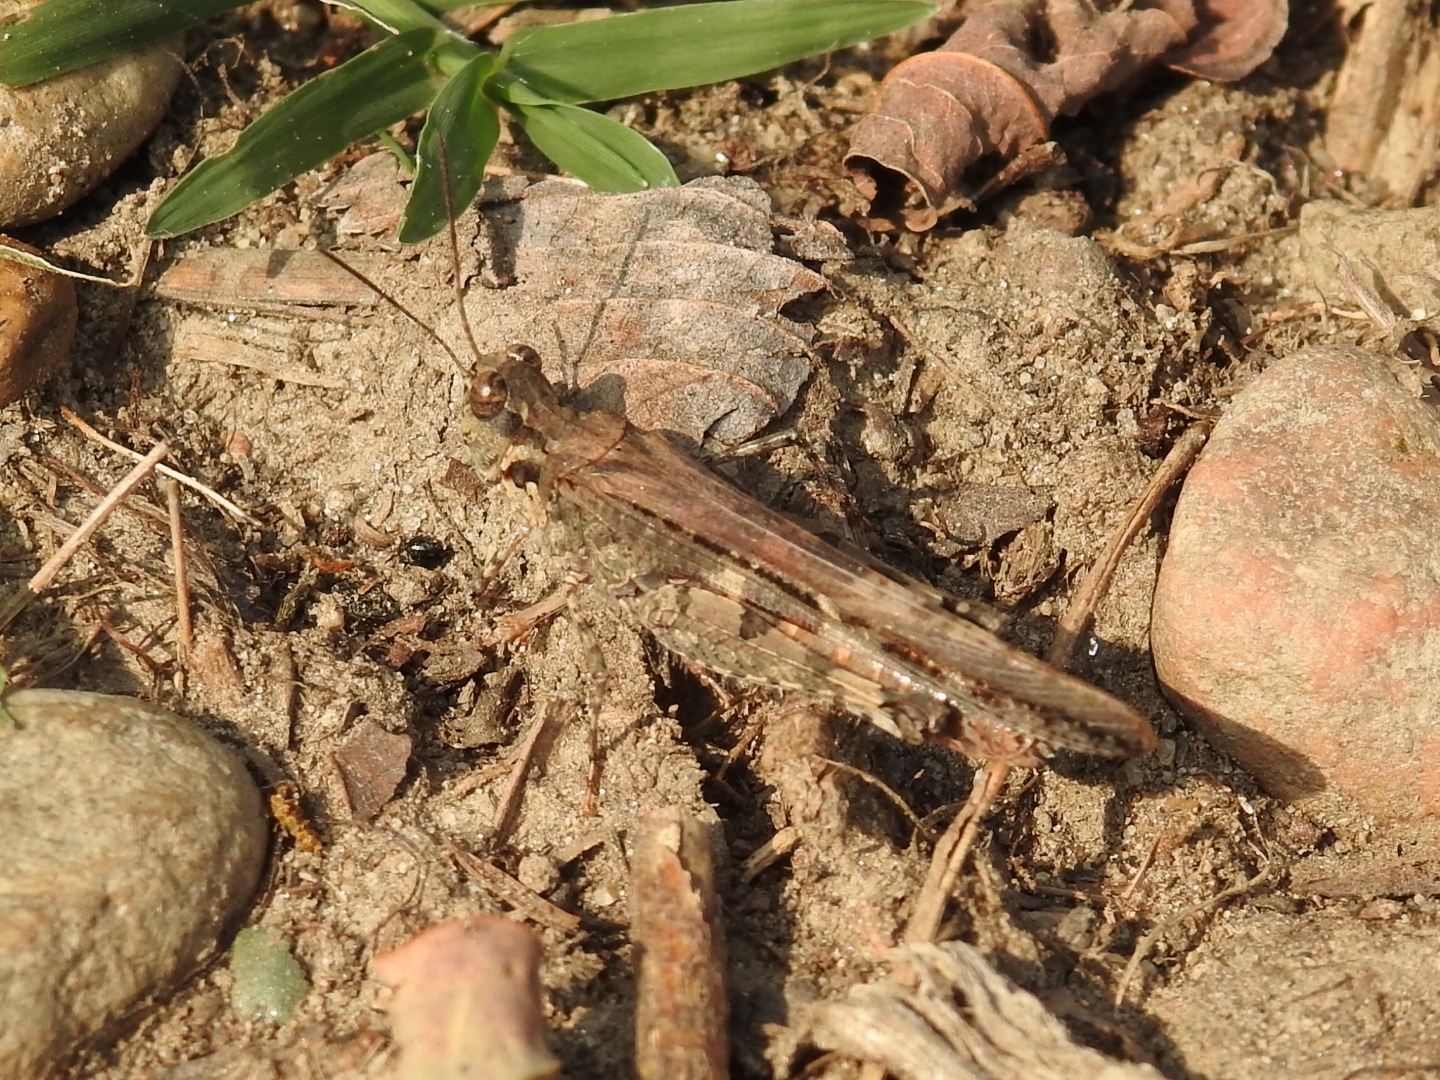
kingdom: Animalia
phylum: Arthropoda
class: Insecta
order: Orthoptera
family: Acrididae
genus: Acrotylus
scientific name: Acrotylus patruelis
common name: Slender burrowing grasshopper
